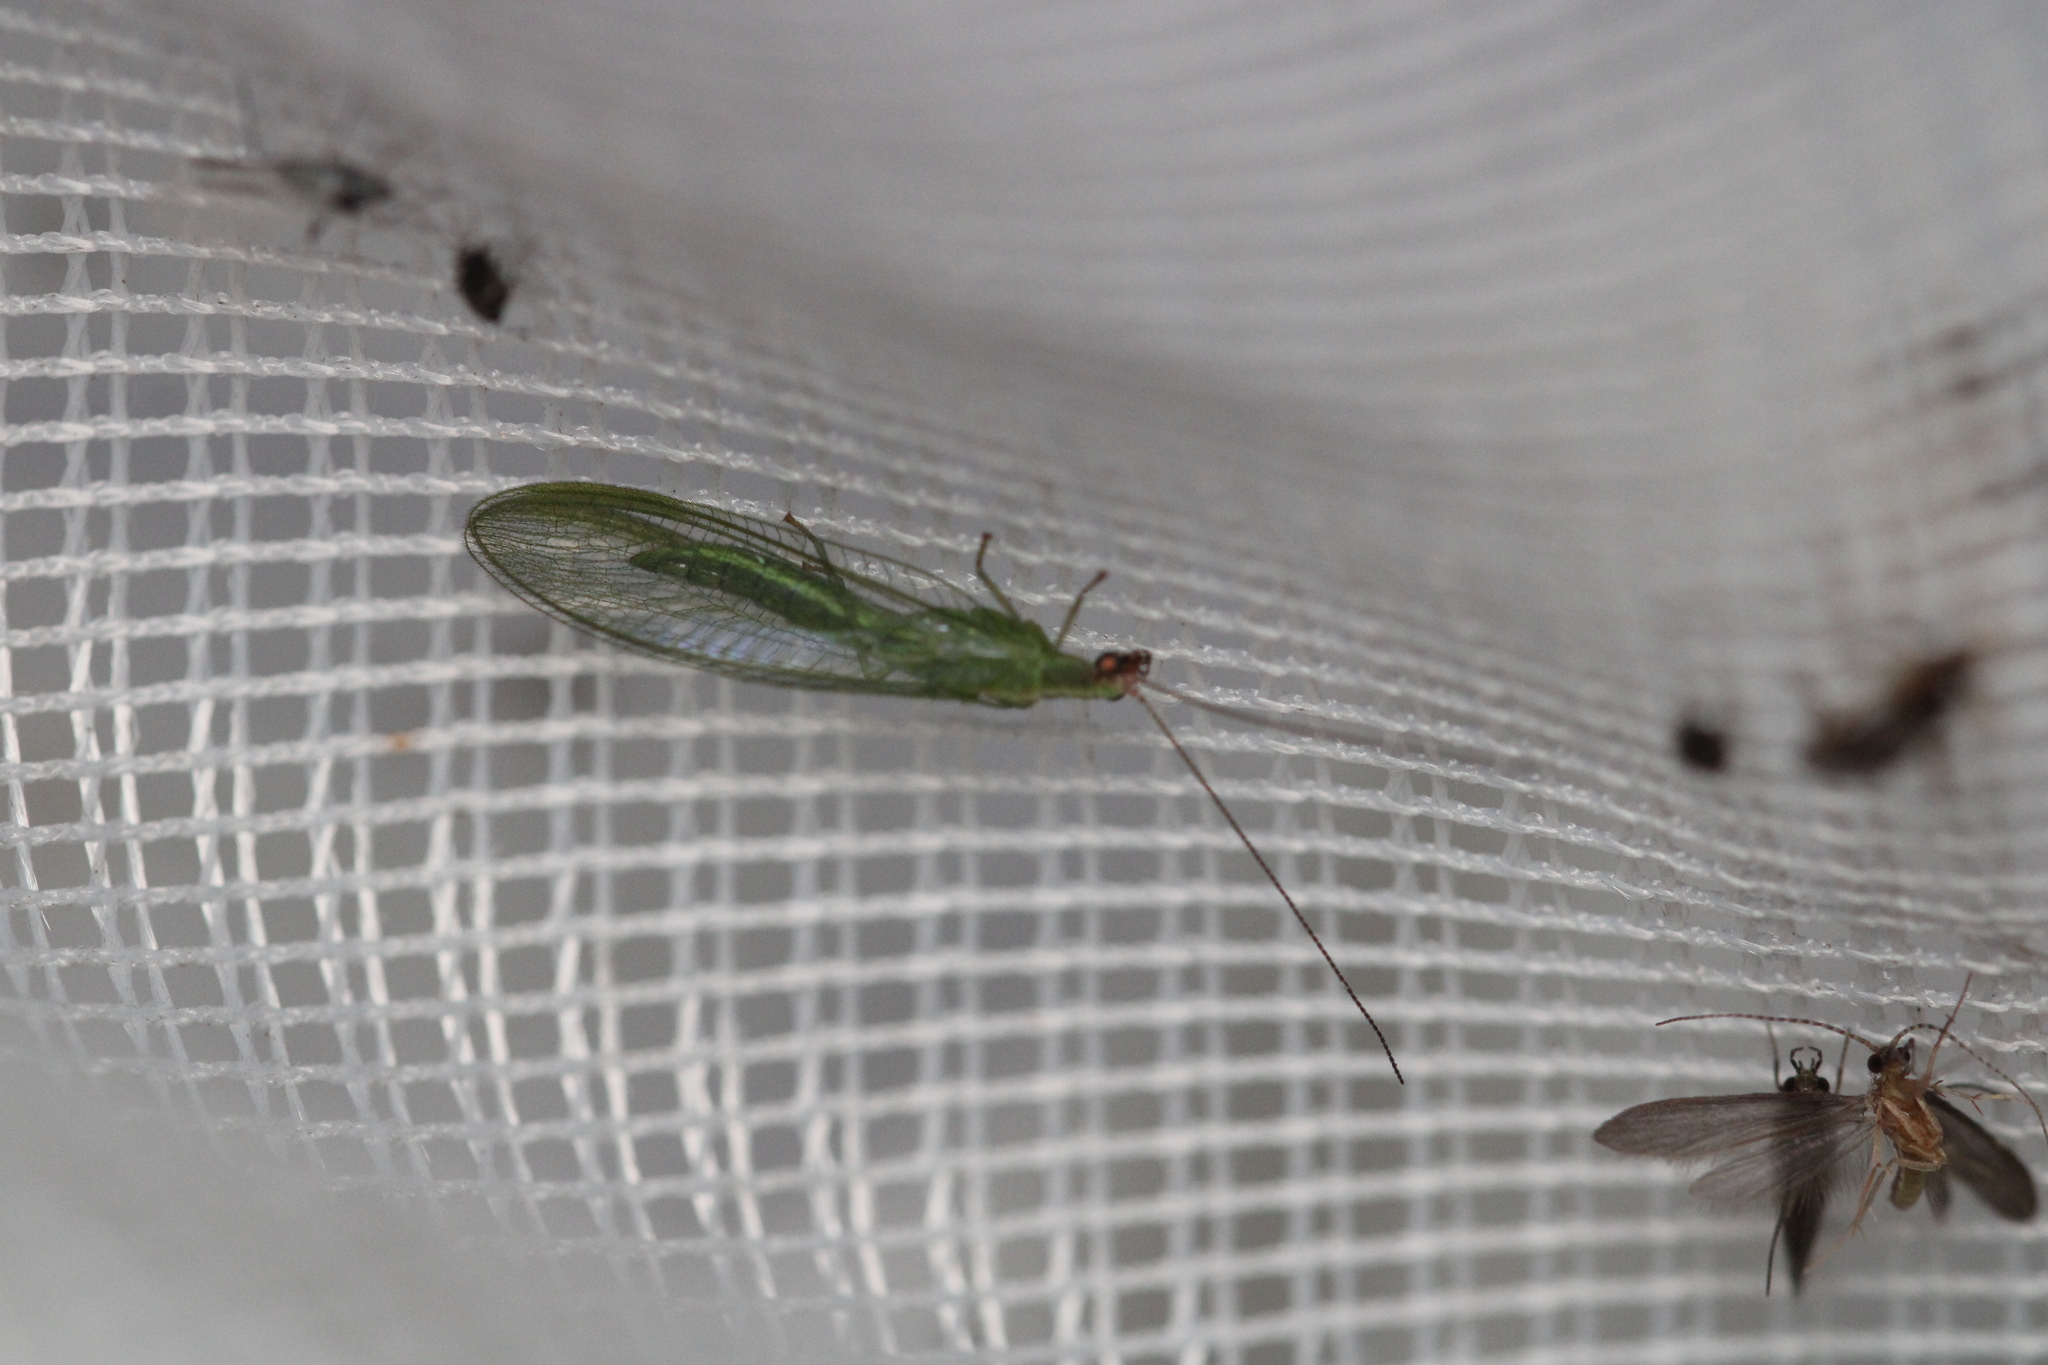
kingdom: Animalia
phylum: Arthropoda
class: Insecta
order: Neuroptera
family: Chrysopidae
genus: Peyerimhoffina
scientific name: Peyerimhoffina gracilis
